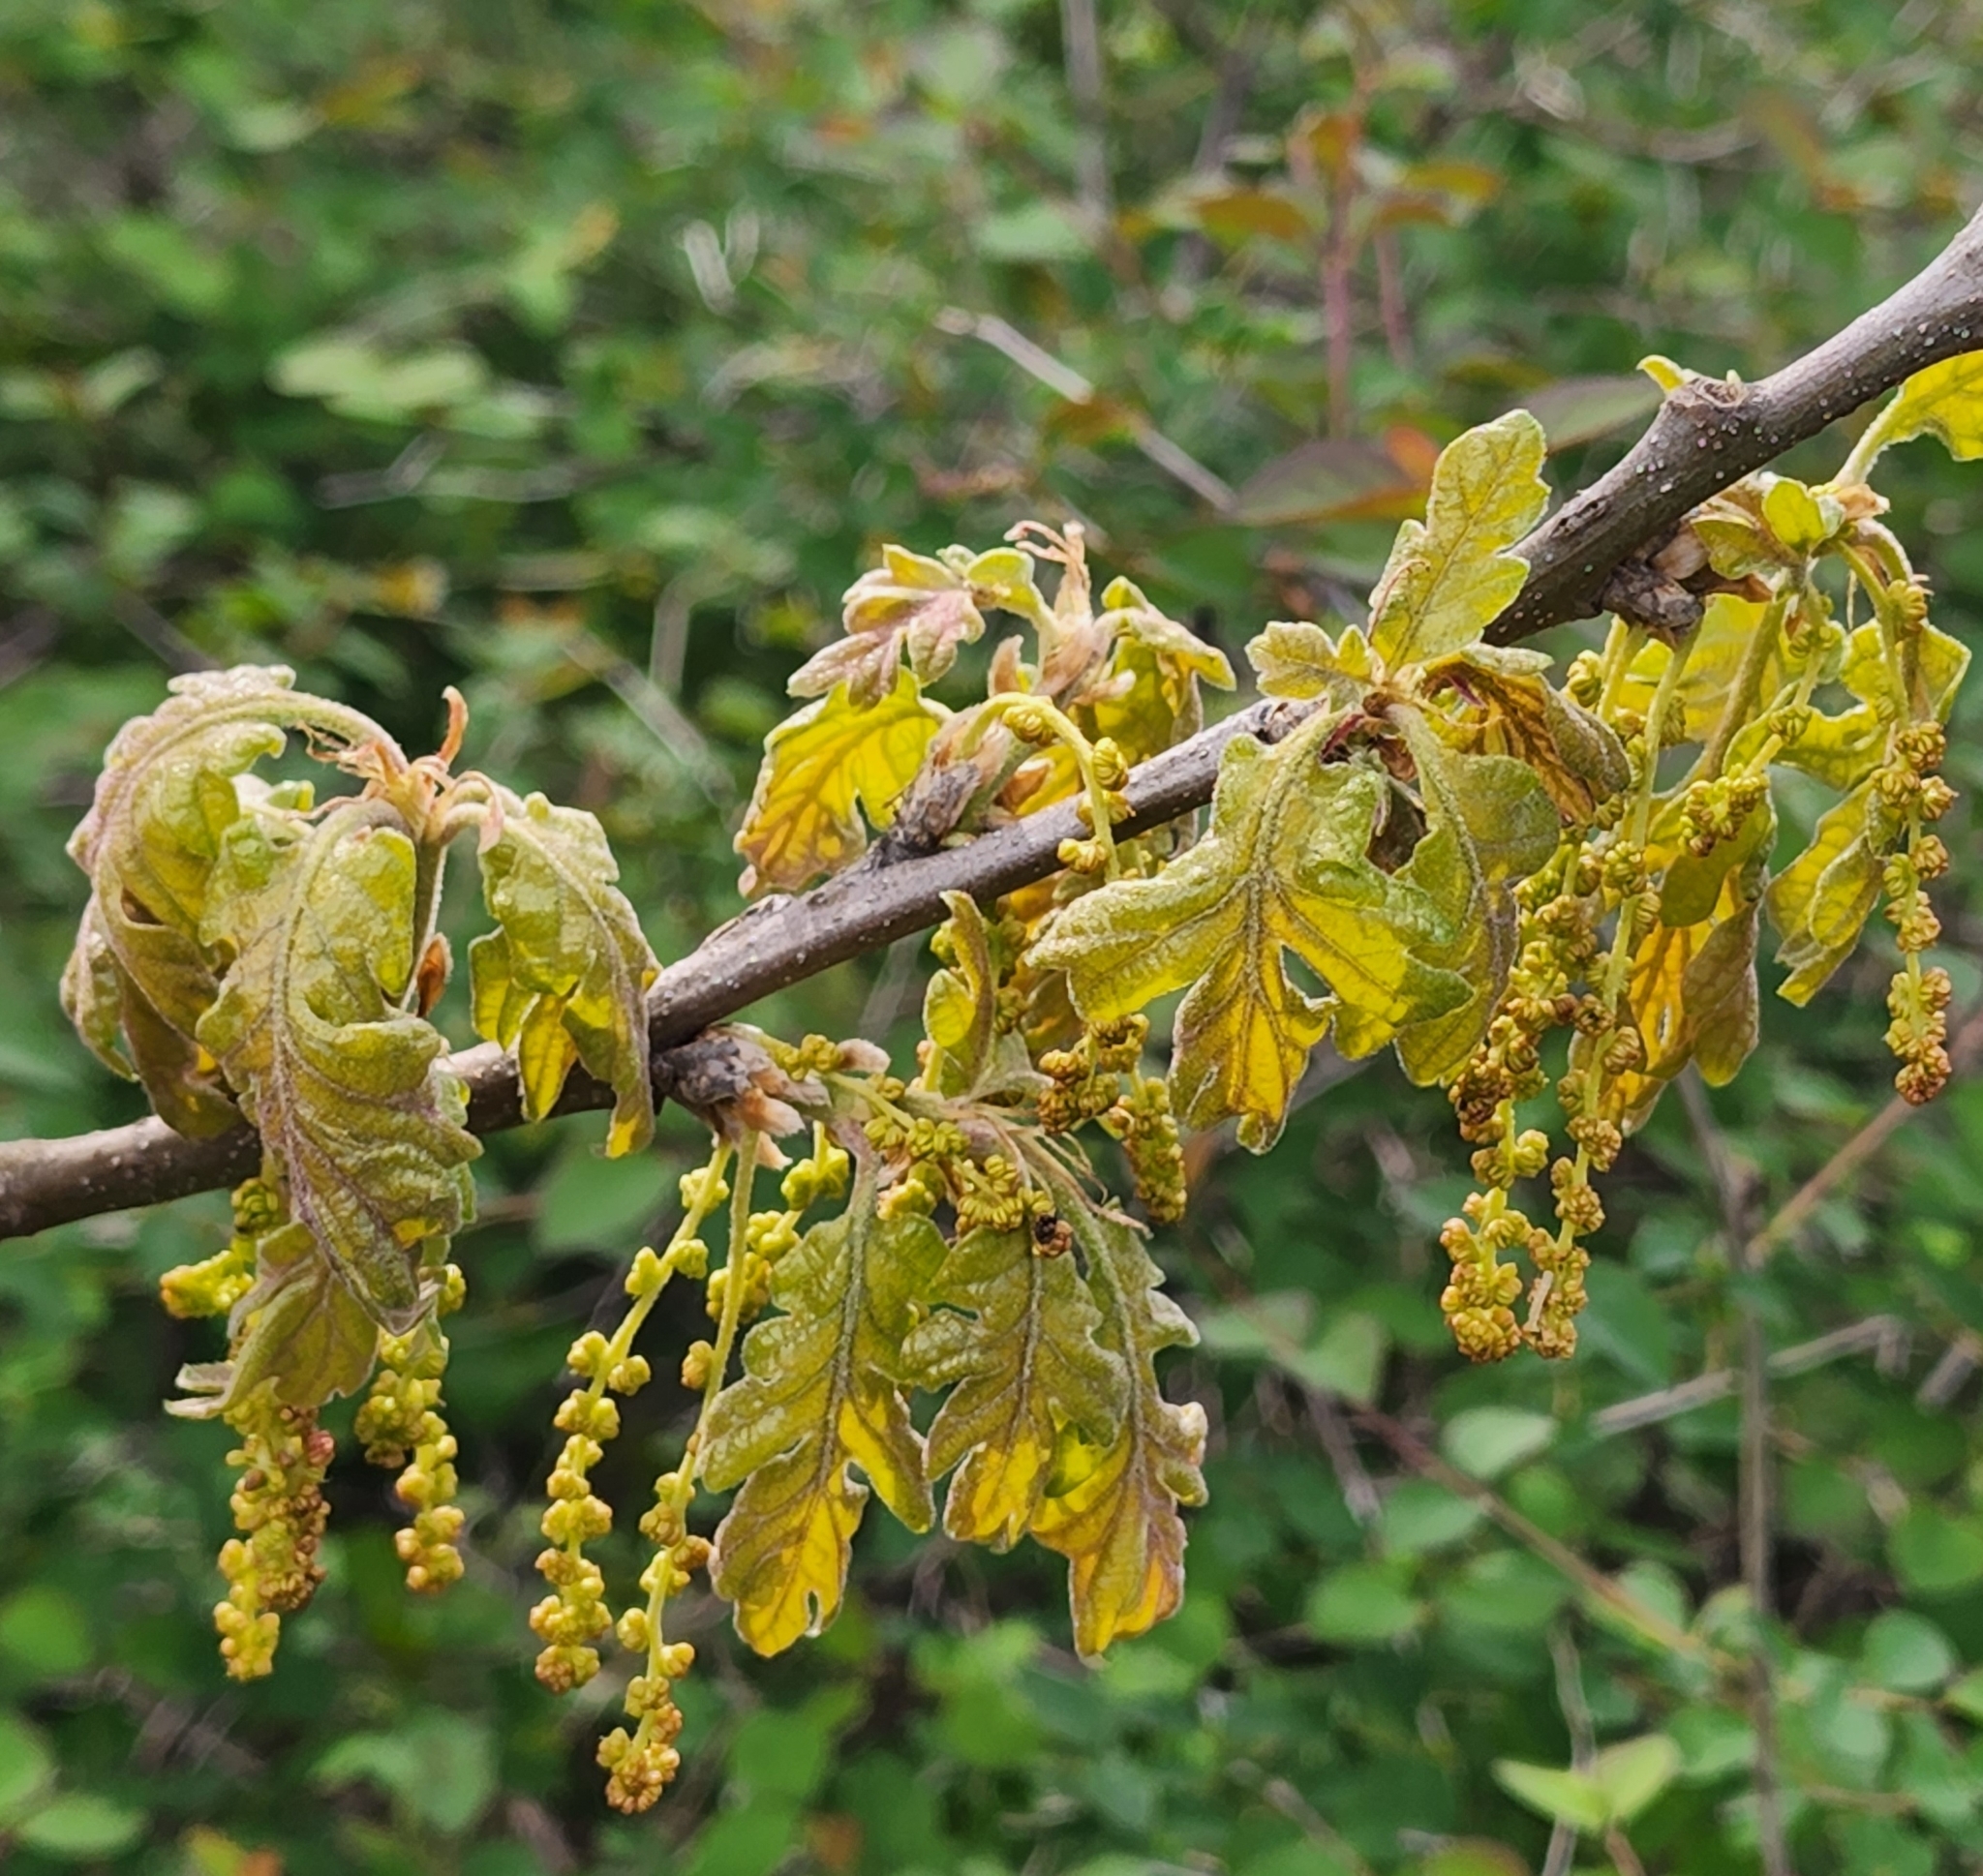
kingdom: Plantae
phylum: Tracheophyta
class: Magnoliopsida
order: Fagales
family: Fagaceae
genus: Quercus
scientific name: Quercus garryana
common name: Garry oak
